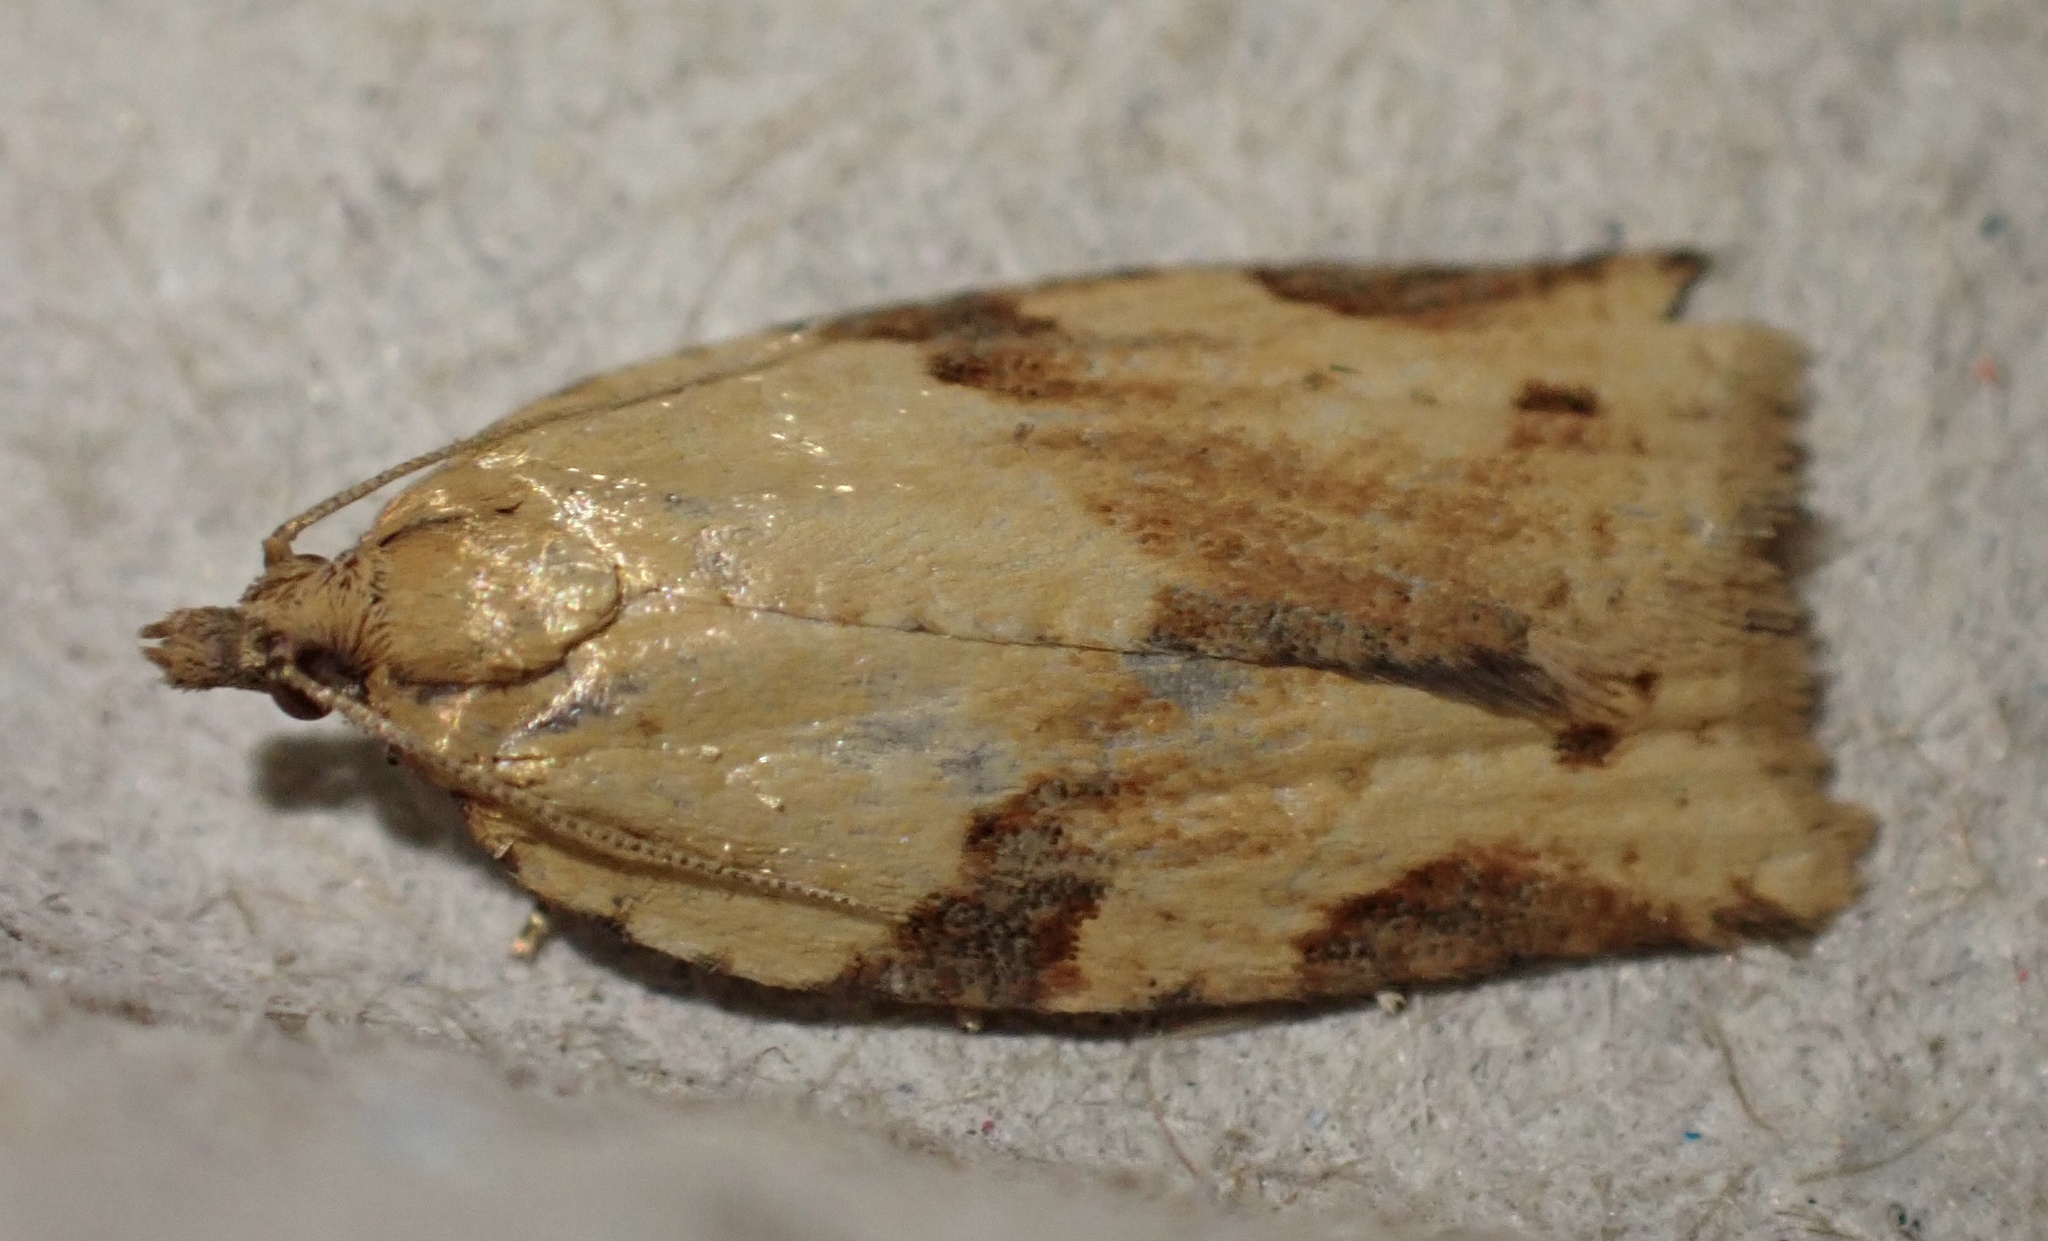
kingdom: Animalia
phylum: Arthropoda
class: Insecta
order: Lepidoptera
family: Tortricidae
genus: Clepsis
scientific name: Clepsis spectrana
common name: Cyclamen tortrix
